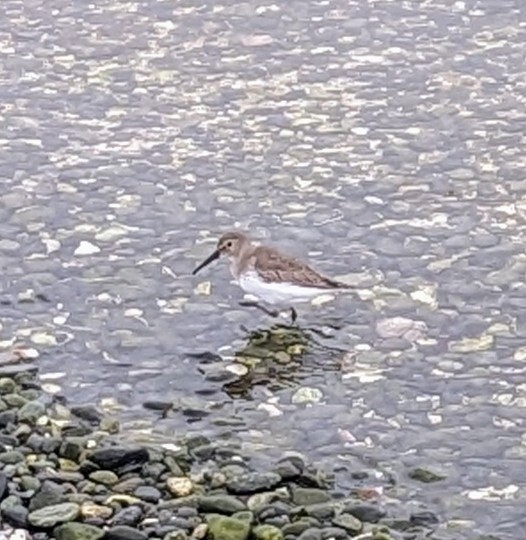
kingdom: Animalia
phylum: Chordata
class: Aves
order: Charadriiformes
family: Scolopacidae
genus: Calidris
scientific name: Calidris alpina
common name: Dunlin
